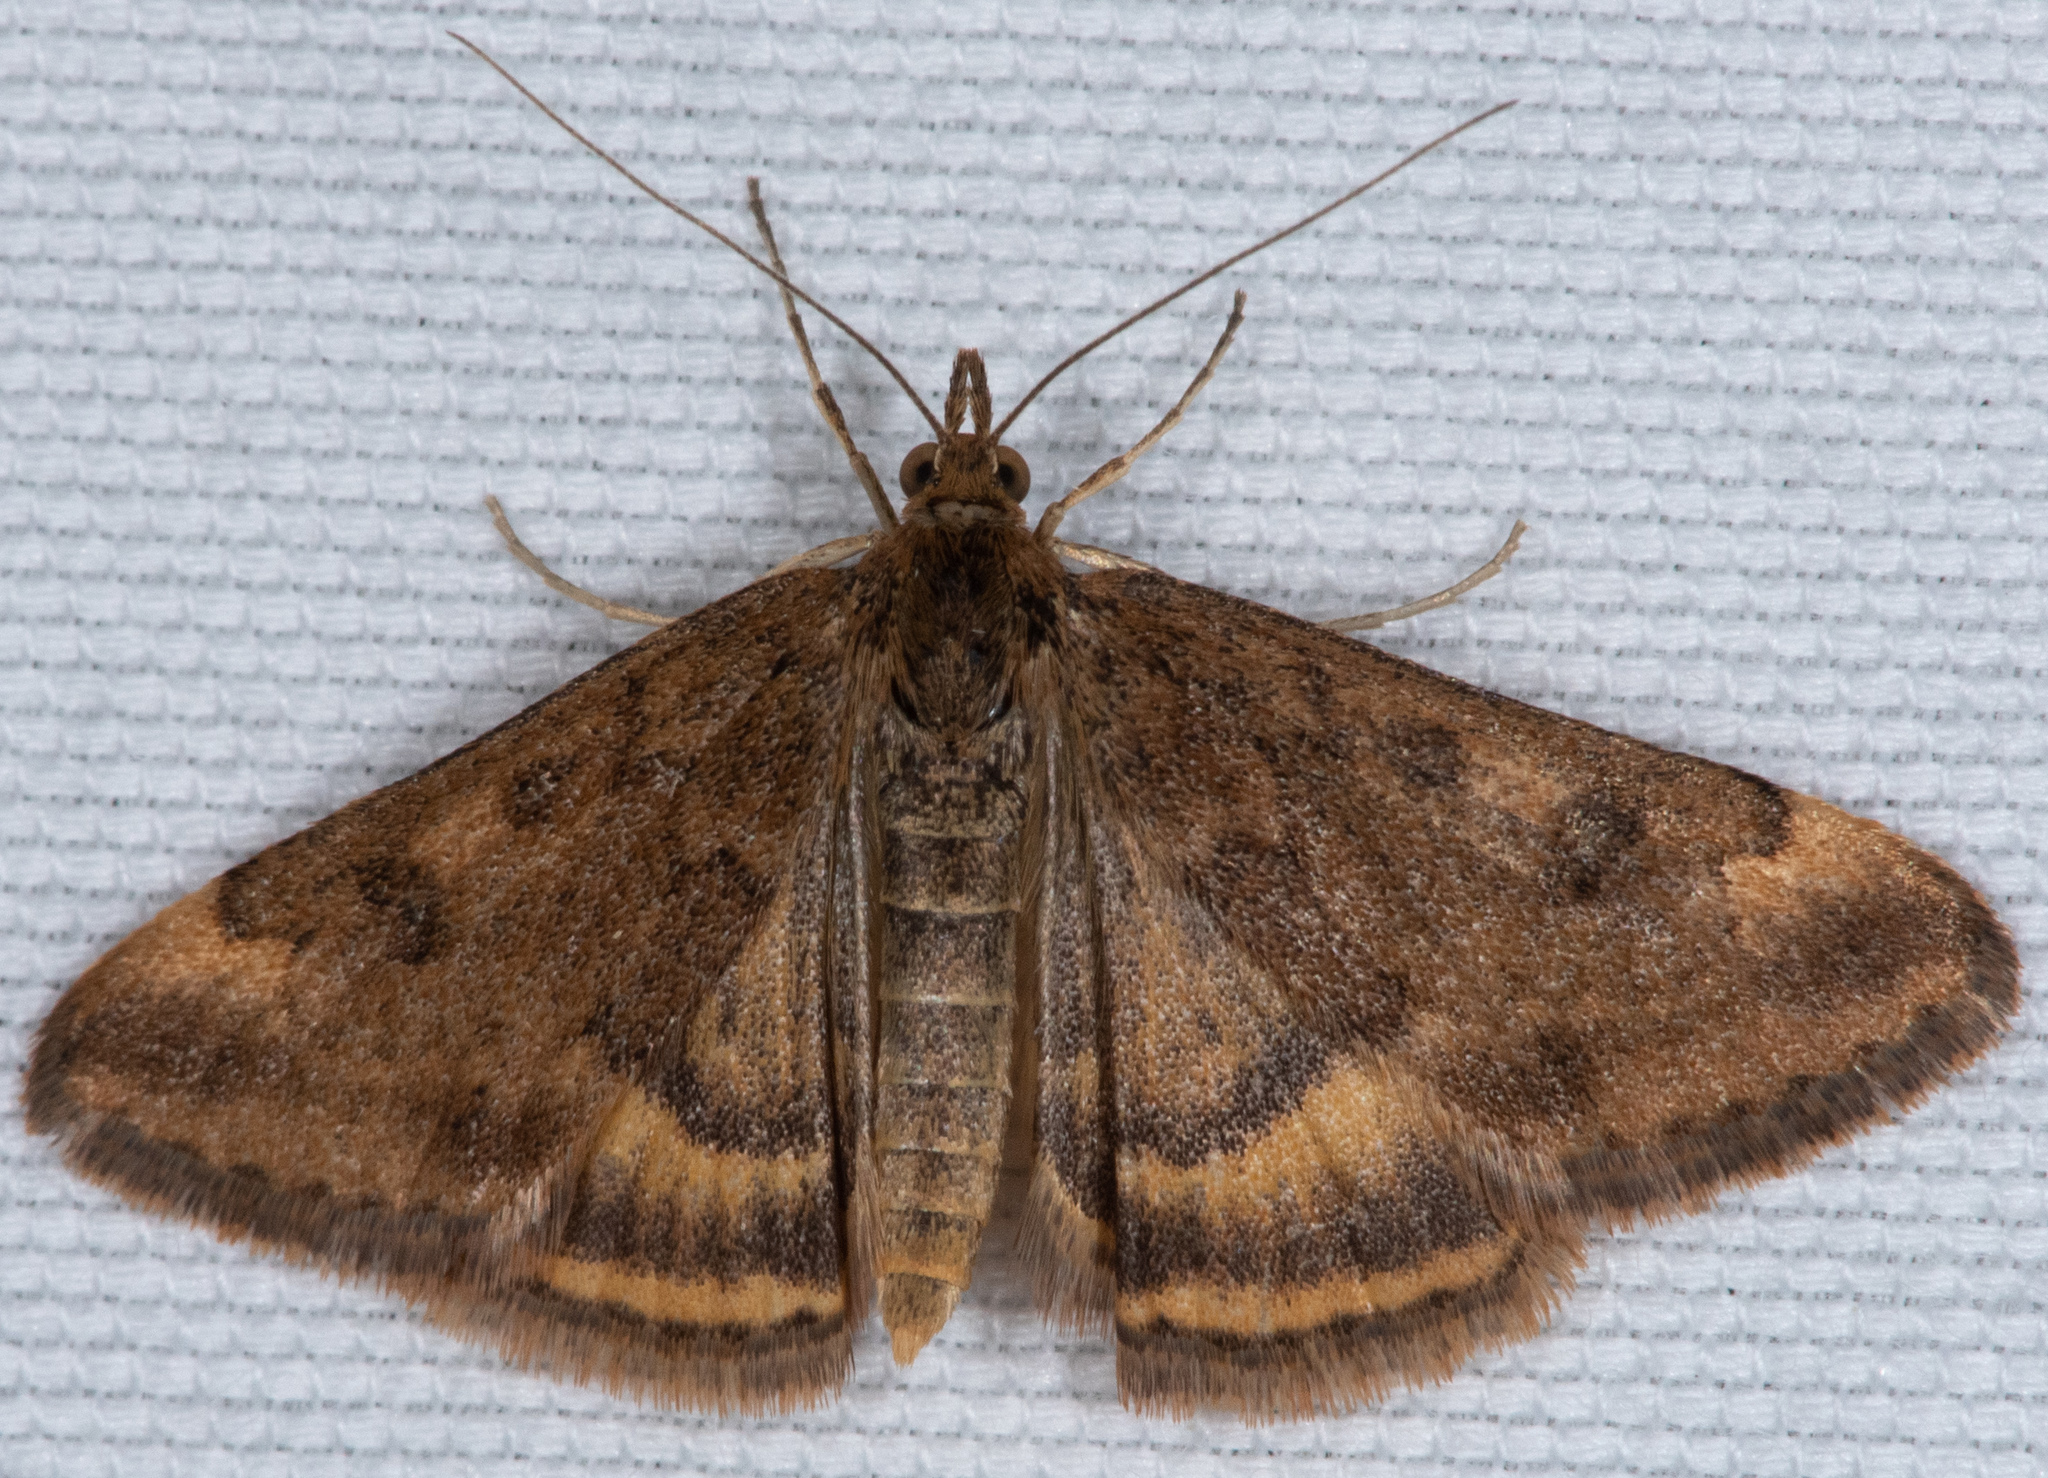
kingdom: Animalia
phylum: Arthropoda
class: Insecta
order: Lepidoptera
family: Crambidae
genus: Pyrausta
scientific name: Pyrausta subsequalis
